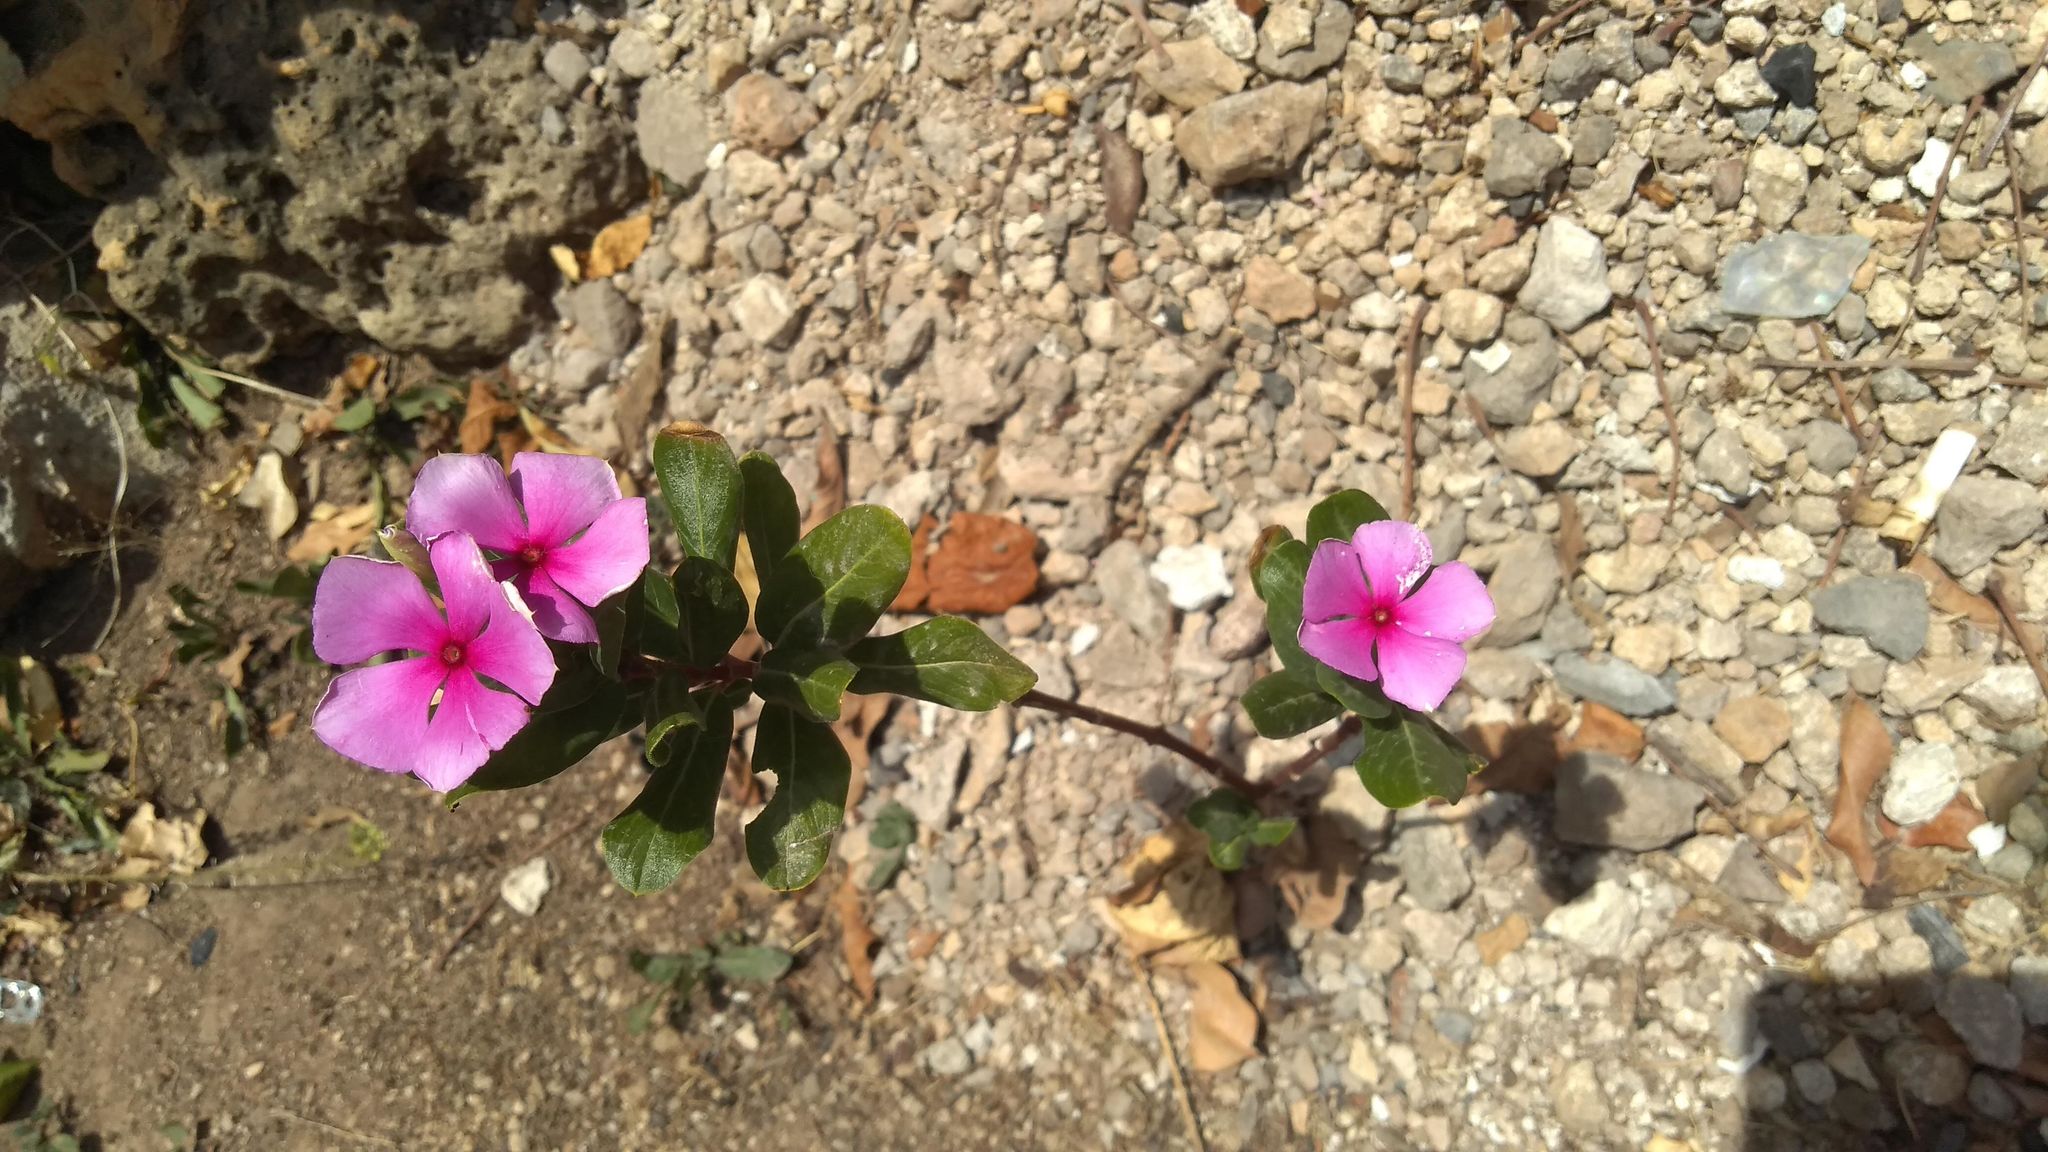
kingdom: Plantae
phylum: Tracheophyta
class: Magnoliopsida
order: Gentianales
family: Apocynaceae
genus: Catharanthus
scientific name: Catharanthus roseus
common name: Madagascar periwinkle
